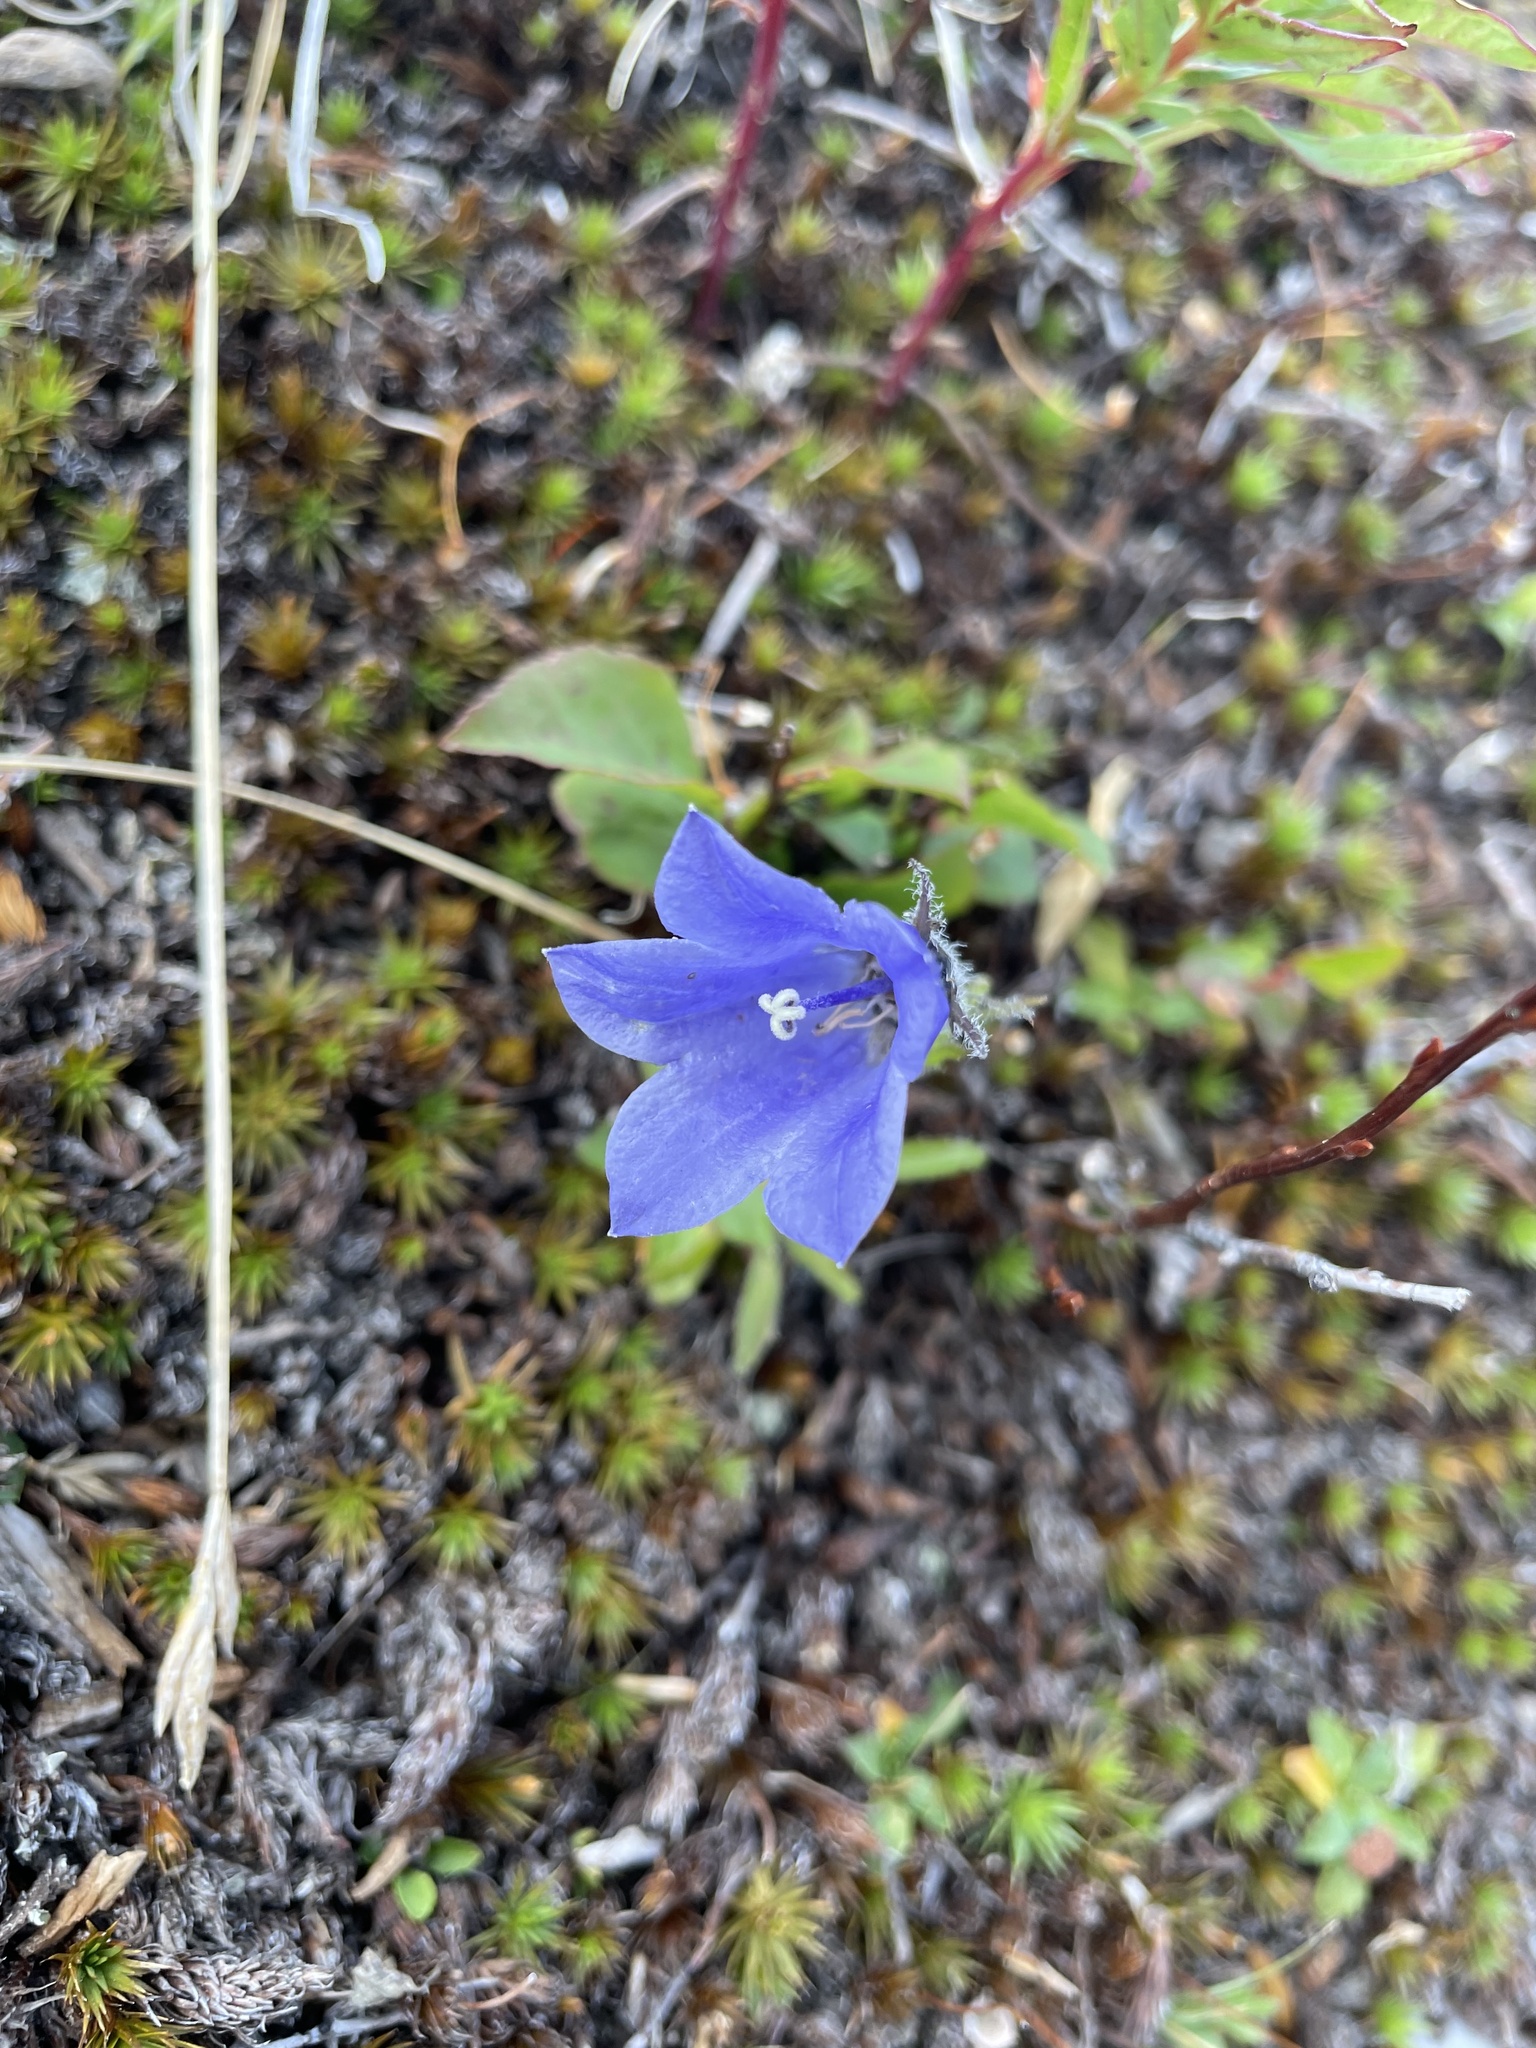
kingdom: Plantae
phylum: Tracheophyta
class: Magnoliopsida
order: Asterales
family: Campanulaceae
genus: Campanula
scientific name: Campanula lasiocarpa
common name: Mountain harebell
